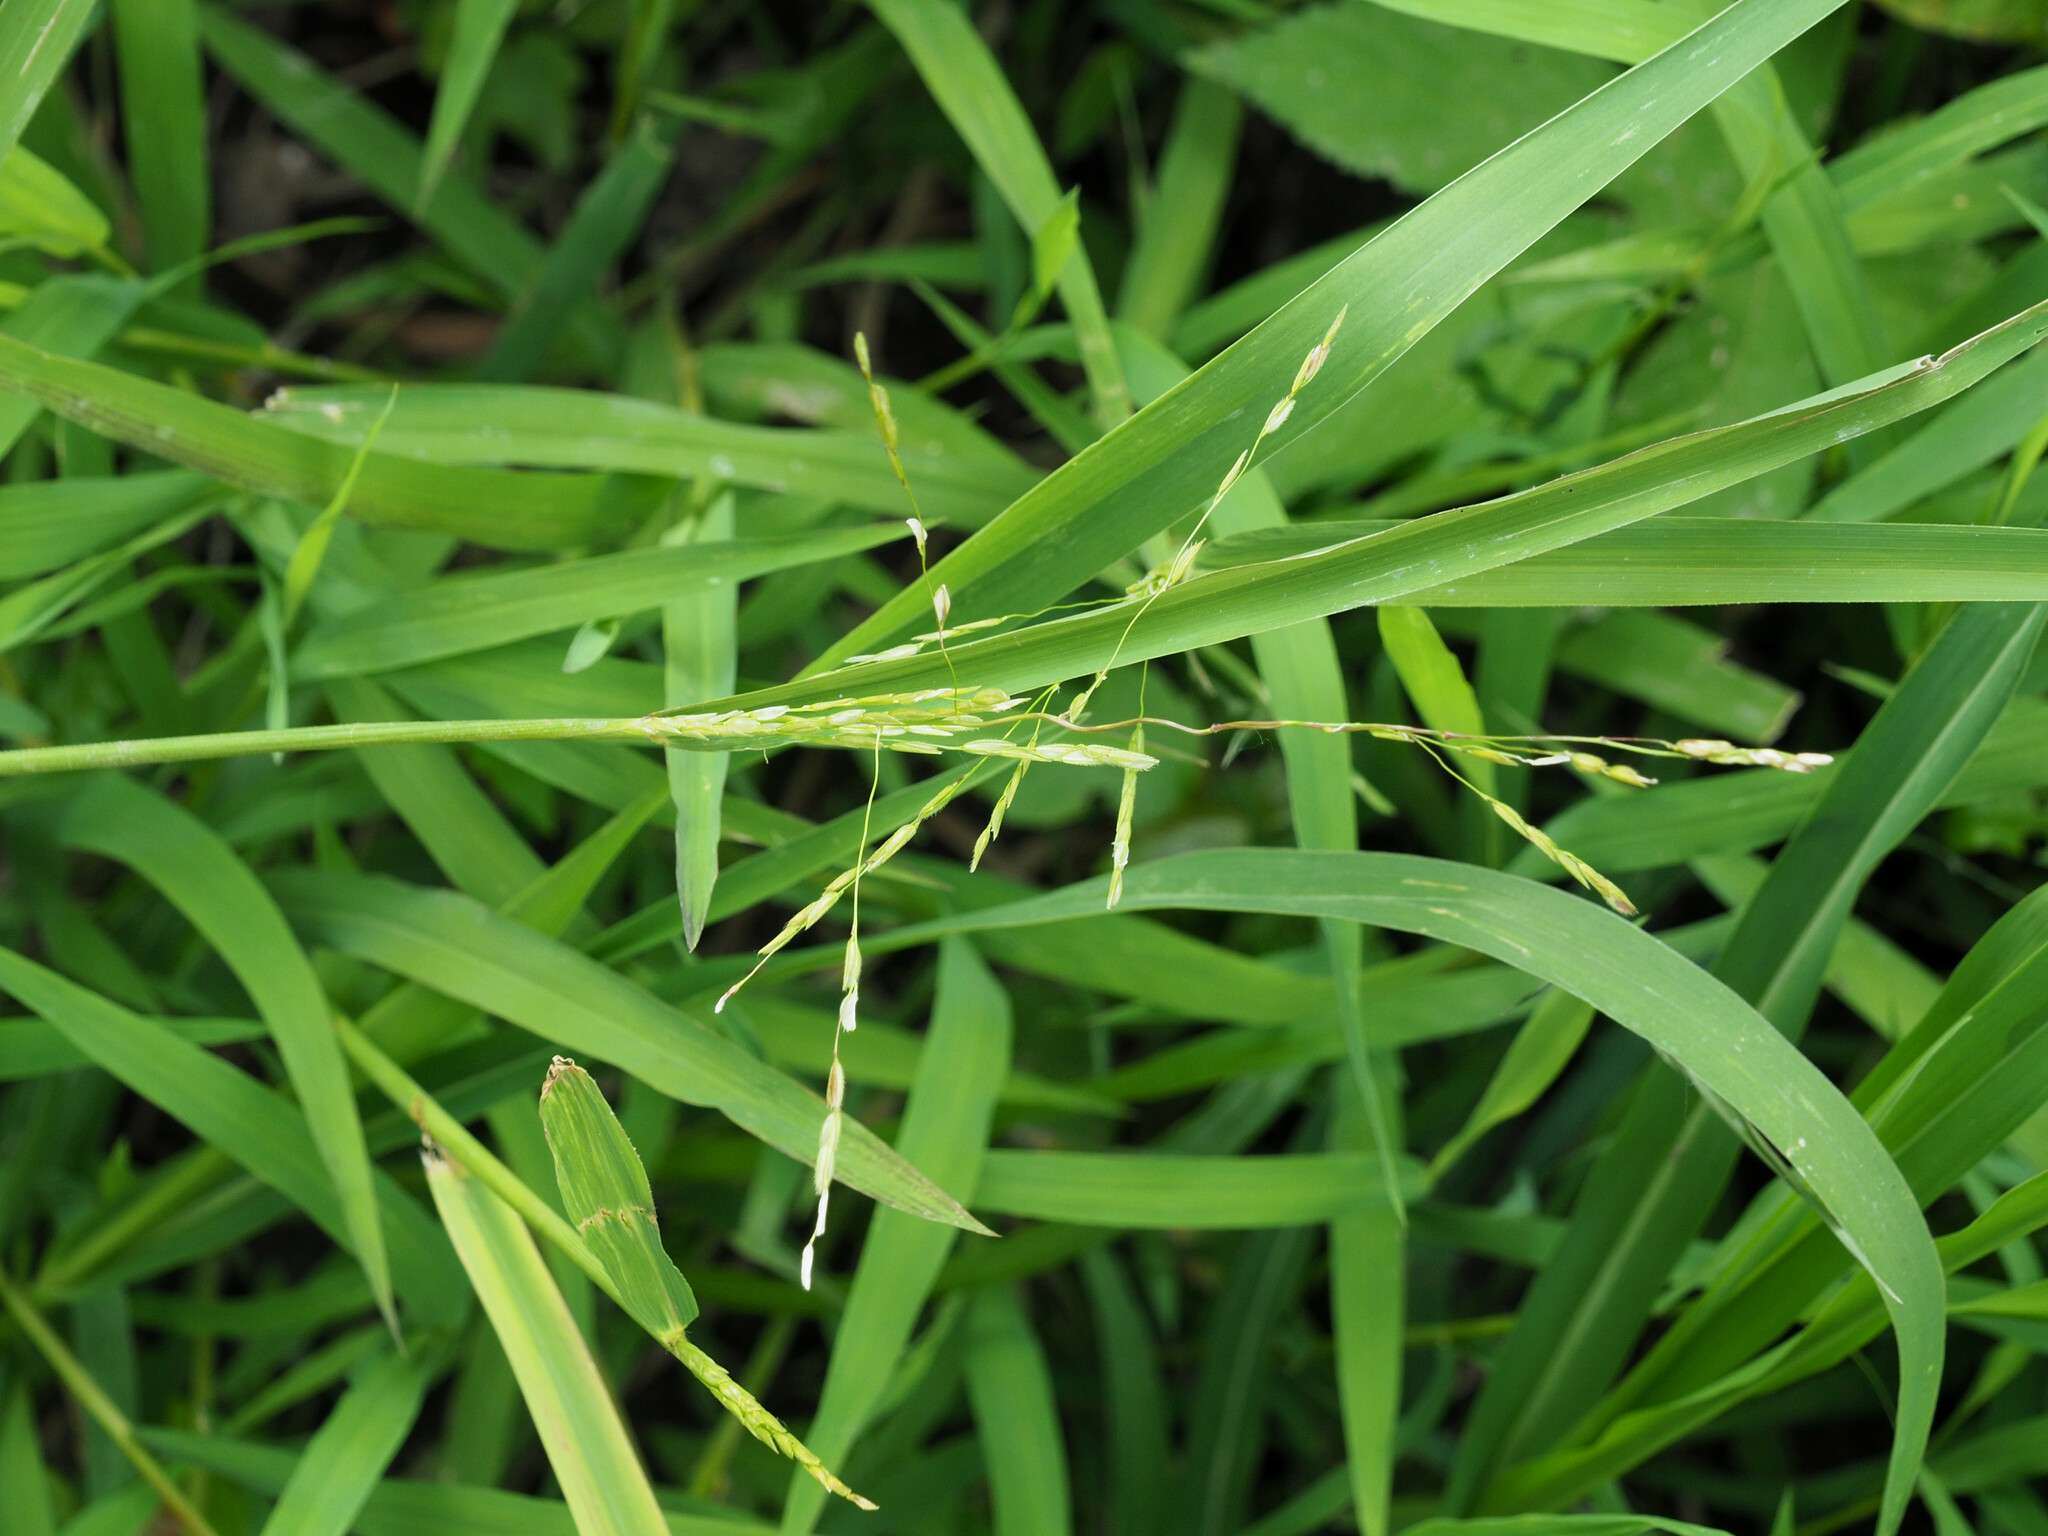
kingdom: Plantae
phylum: Tracheophyta
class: Liliopsida
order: Poales
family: Poaceae
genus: Leersia
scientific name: Leersia oryzoides
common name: Cut-grass
